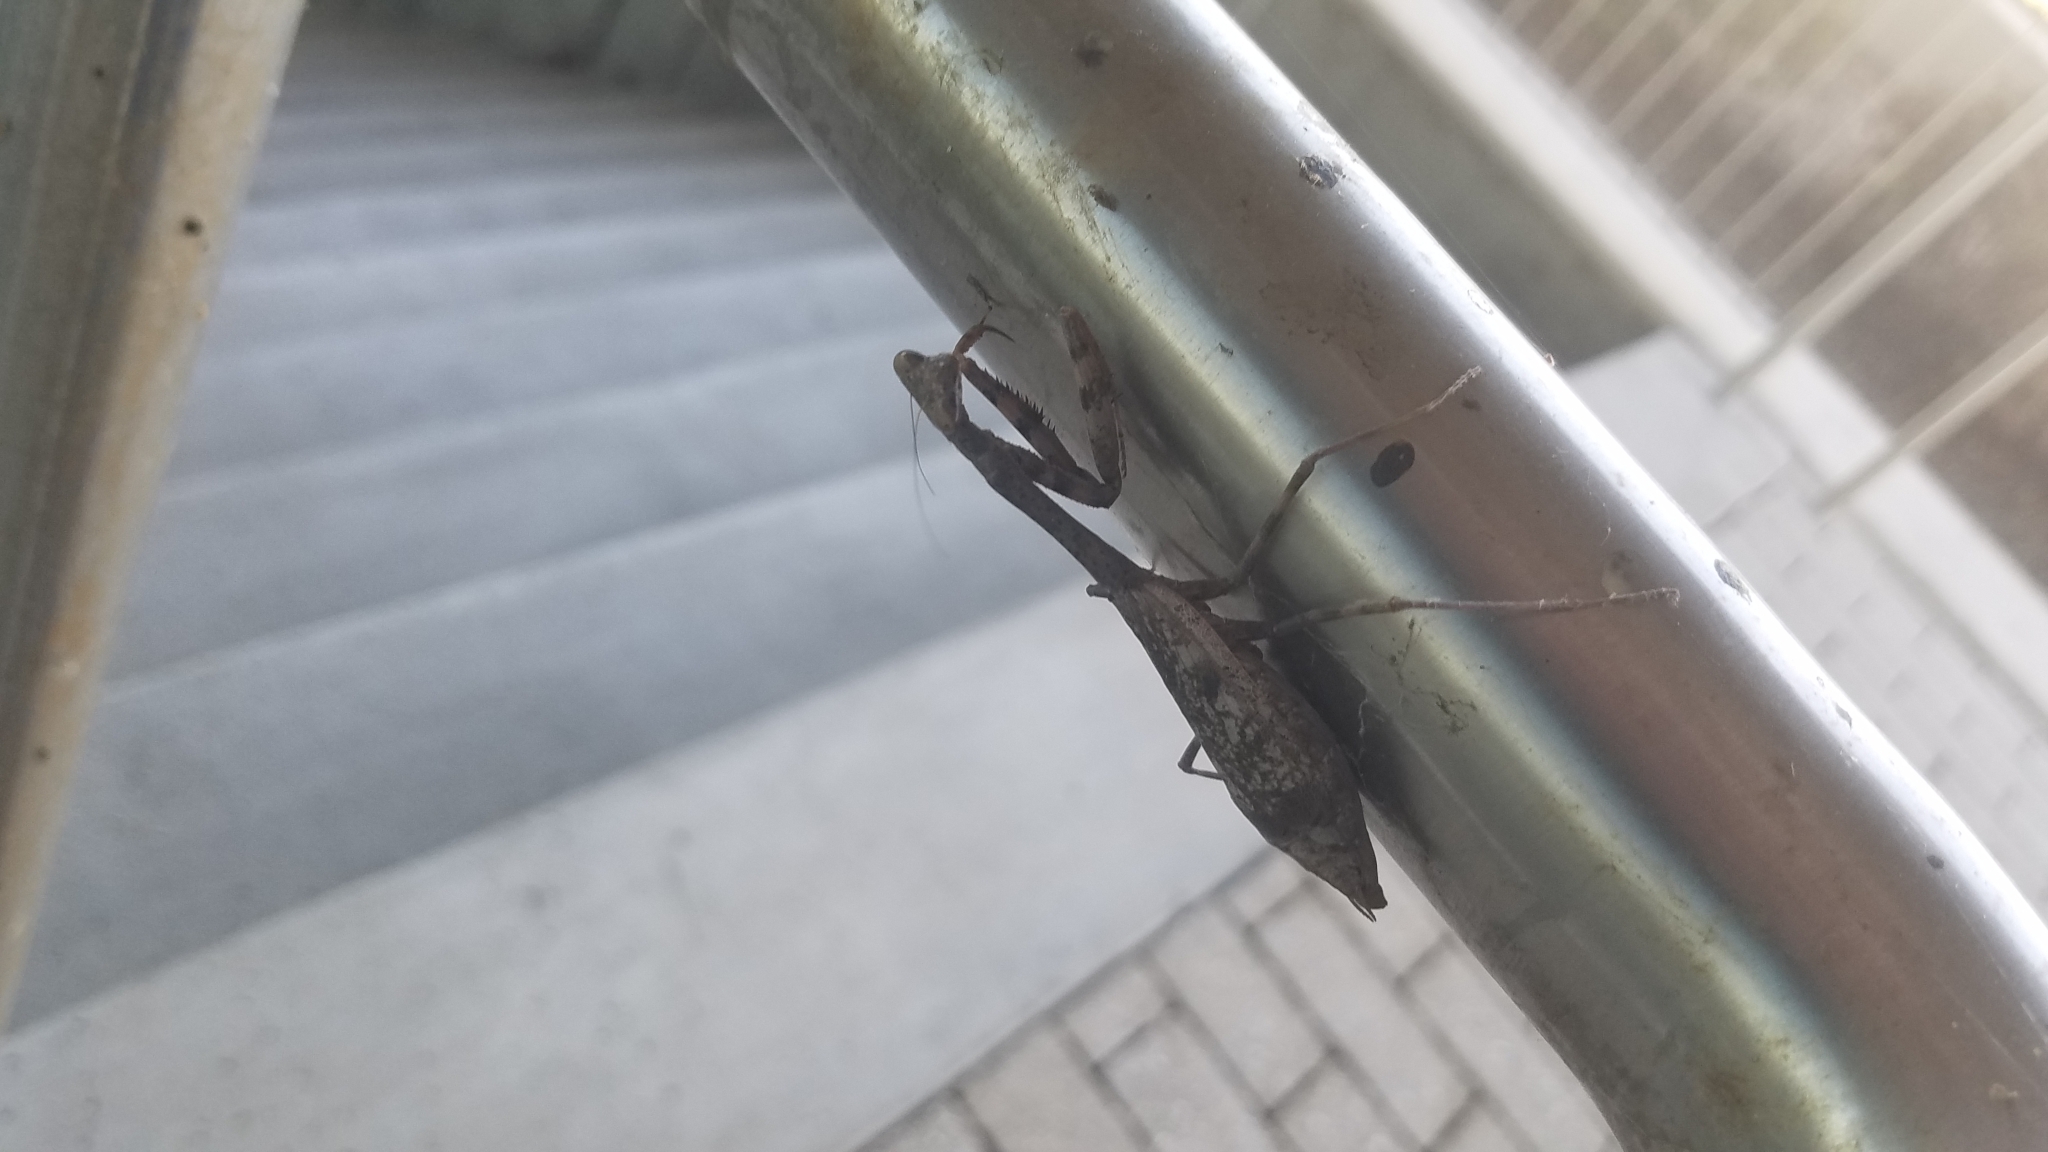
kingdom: Animalia
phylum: Arthropoda
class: Insecta
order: Mantodea
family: Mantidae
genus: Stagmomantis
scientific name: Stagmomantis carolina
